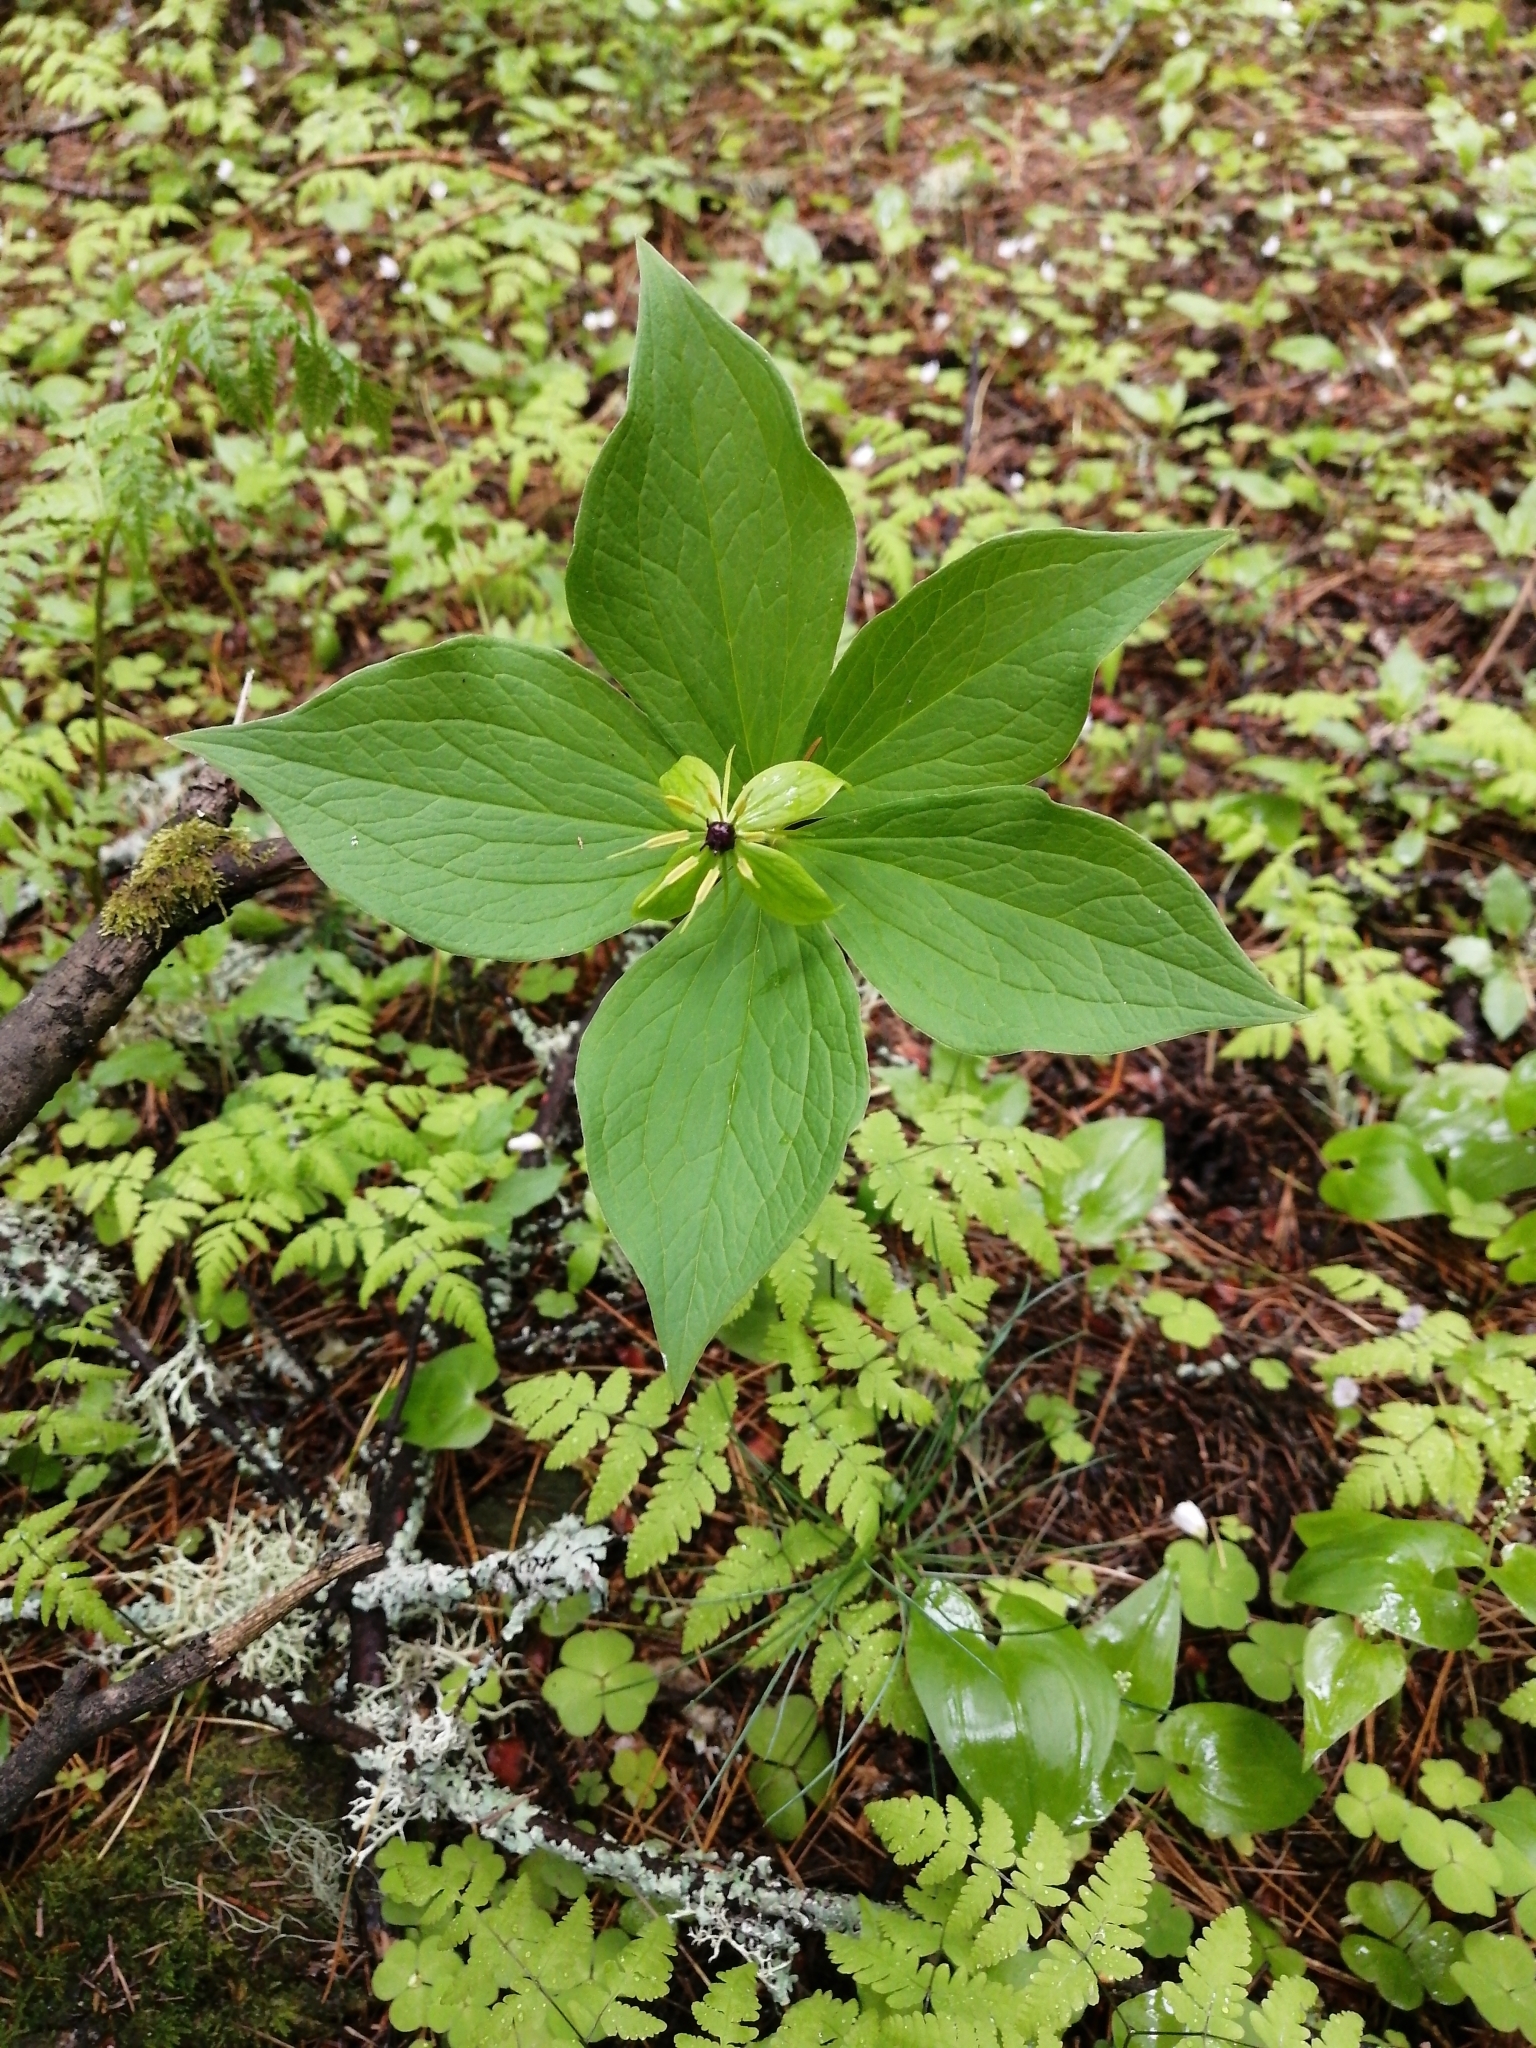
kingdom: Plantae
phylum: Tracheophyta
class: Liliopsida
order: Liliales
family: Melanthiaceae
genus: Paris
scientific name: Paris quadrifolia
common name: Herb-paris
